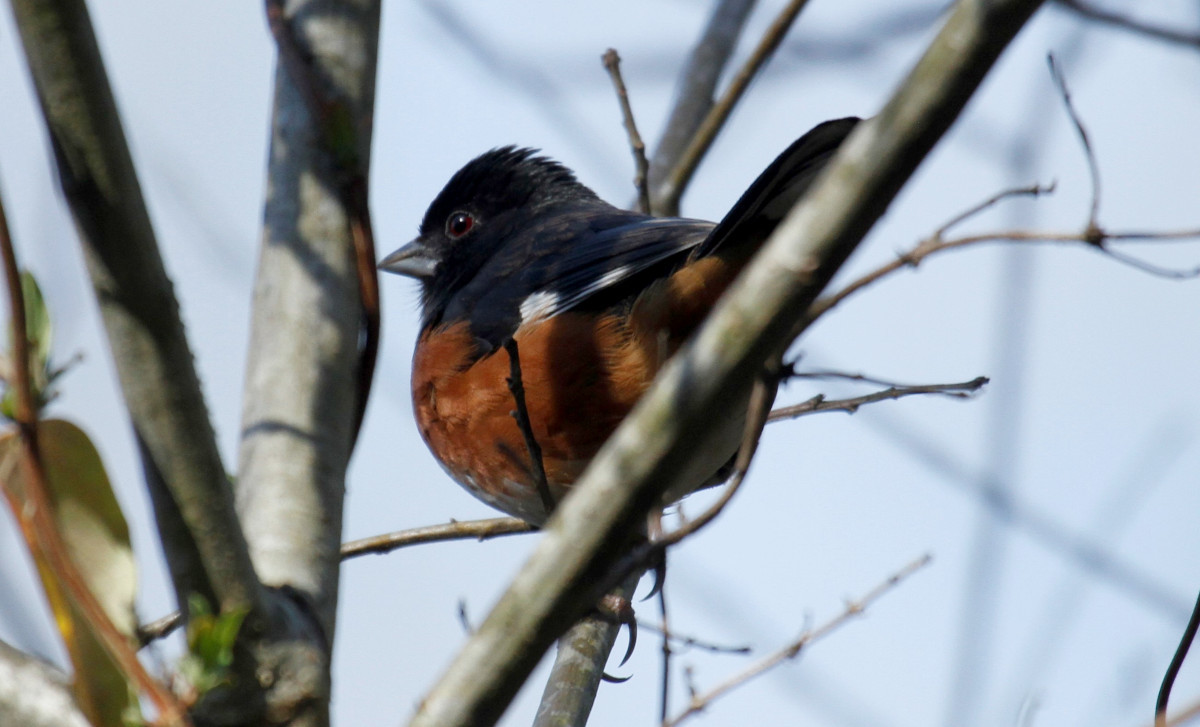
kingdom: Animalia
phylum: Chordata
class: Aves
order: Passeriformes
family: Passerellidae
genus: Pipilo
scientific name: Pipilo erythrophthalmus
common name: Eastern towhee
